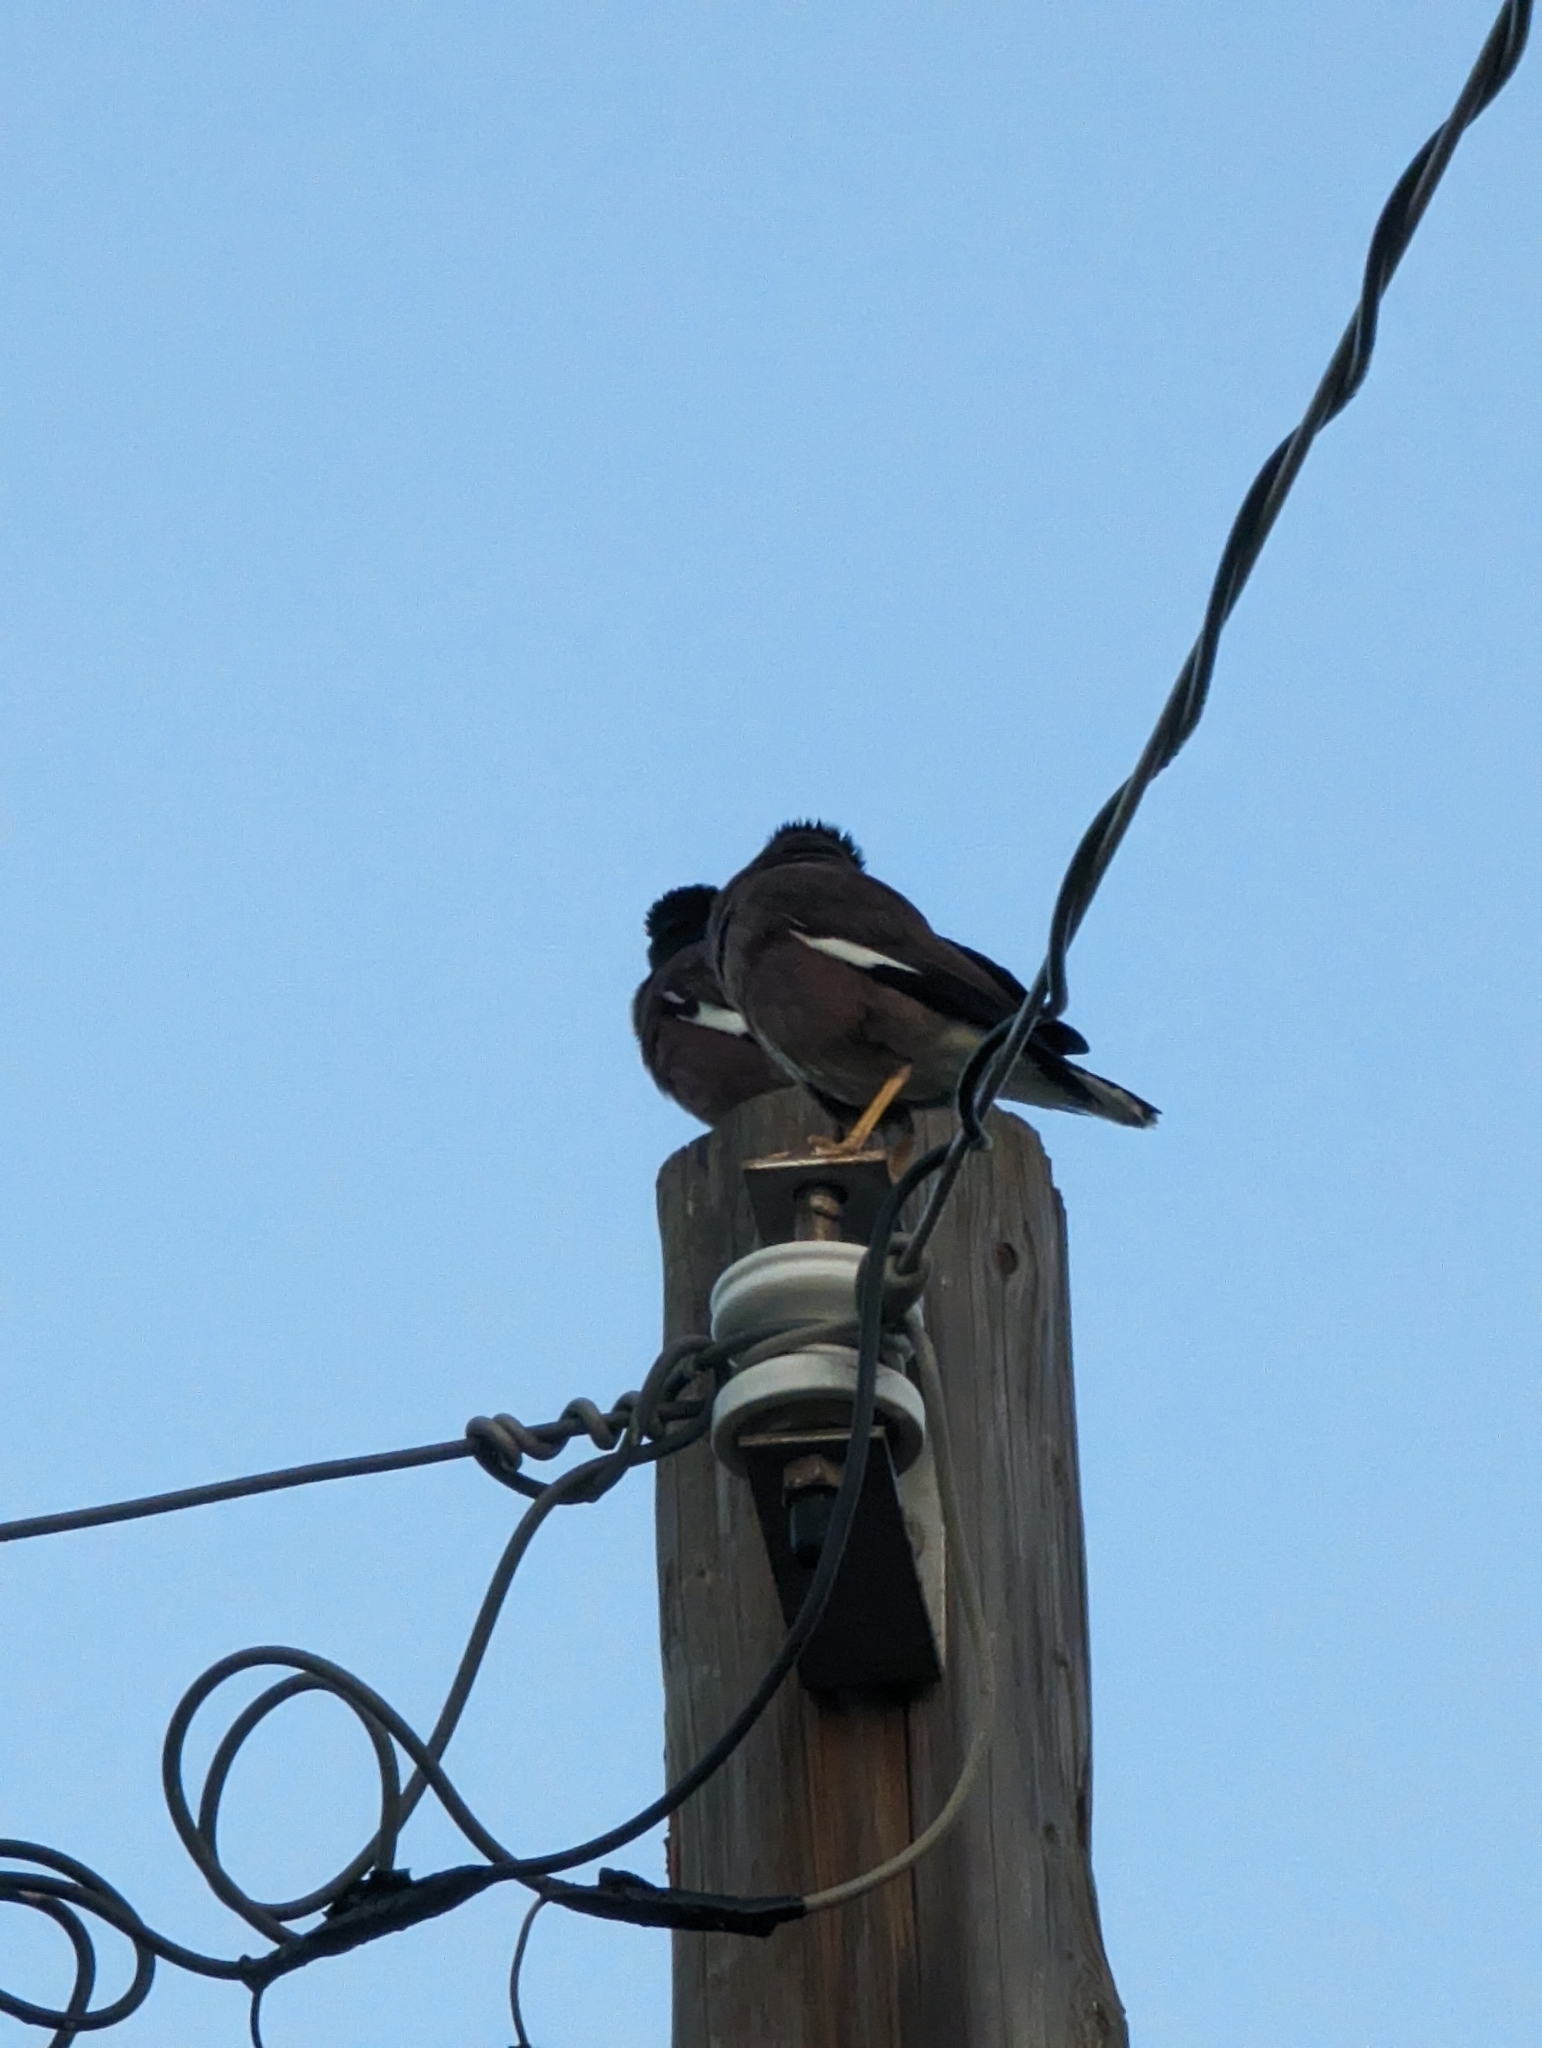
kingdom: Animalia
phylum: Chordata
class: Aves
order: Passeriformes
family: Sturnidae
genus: Acridotheres
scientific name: Acridotheres tristis
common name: Common myna
